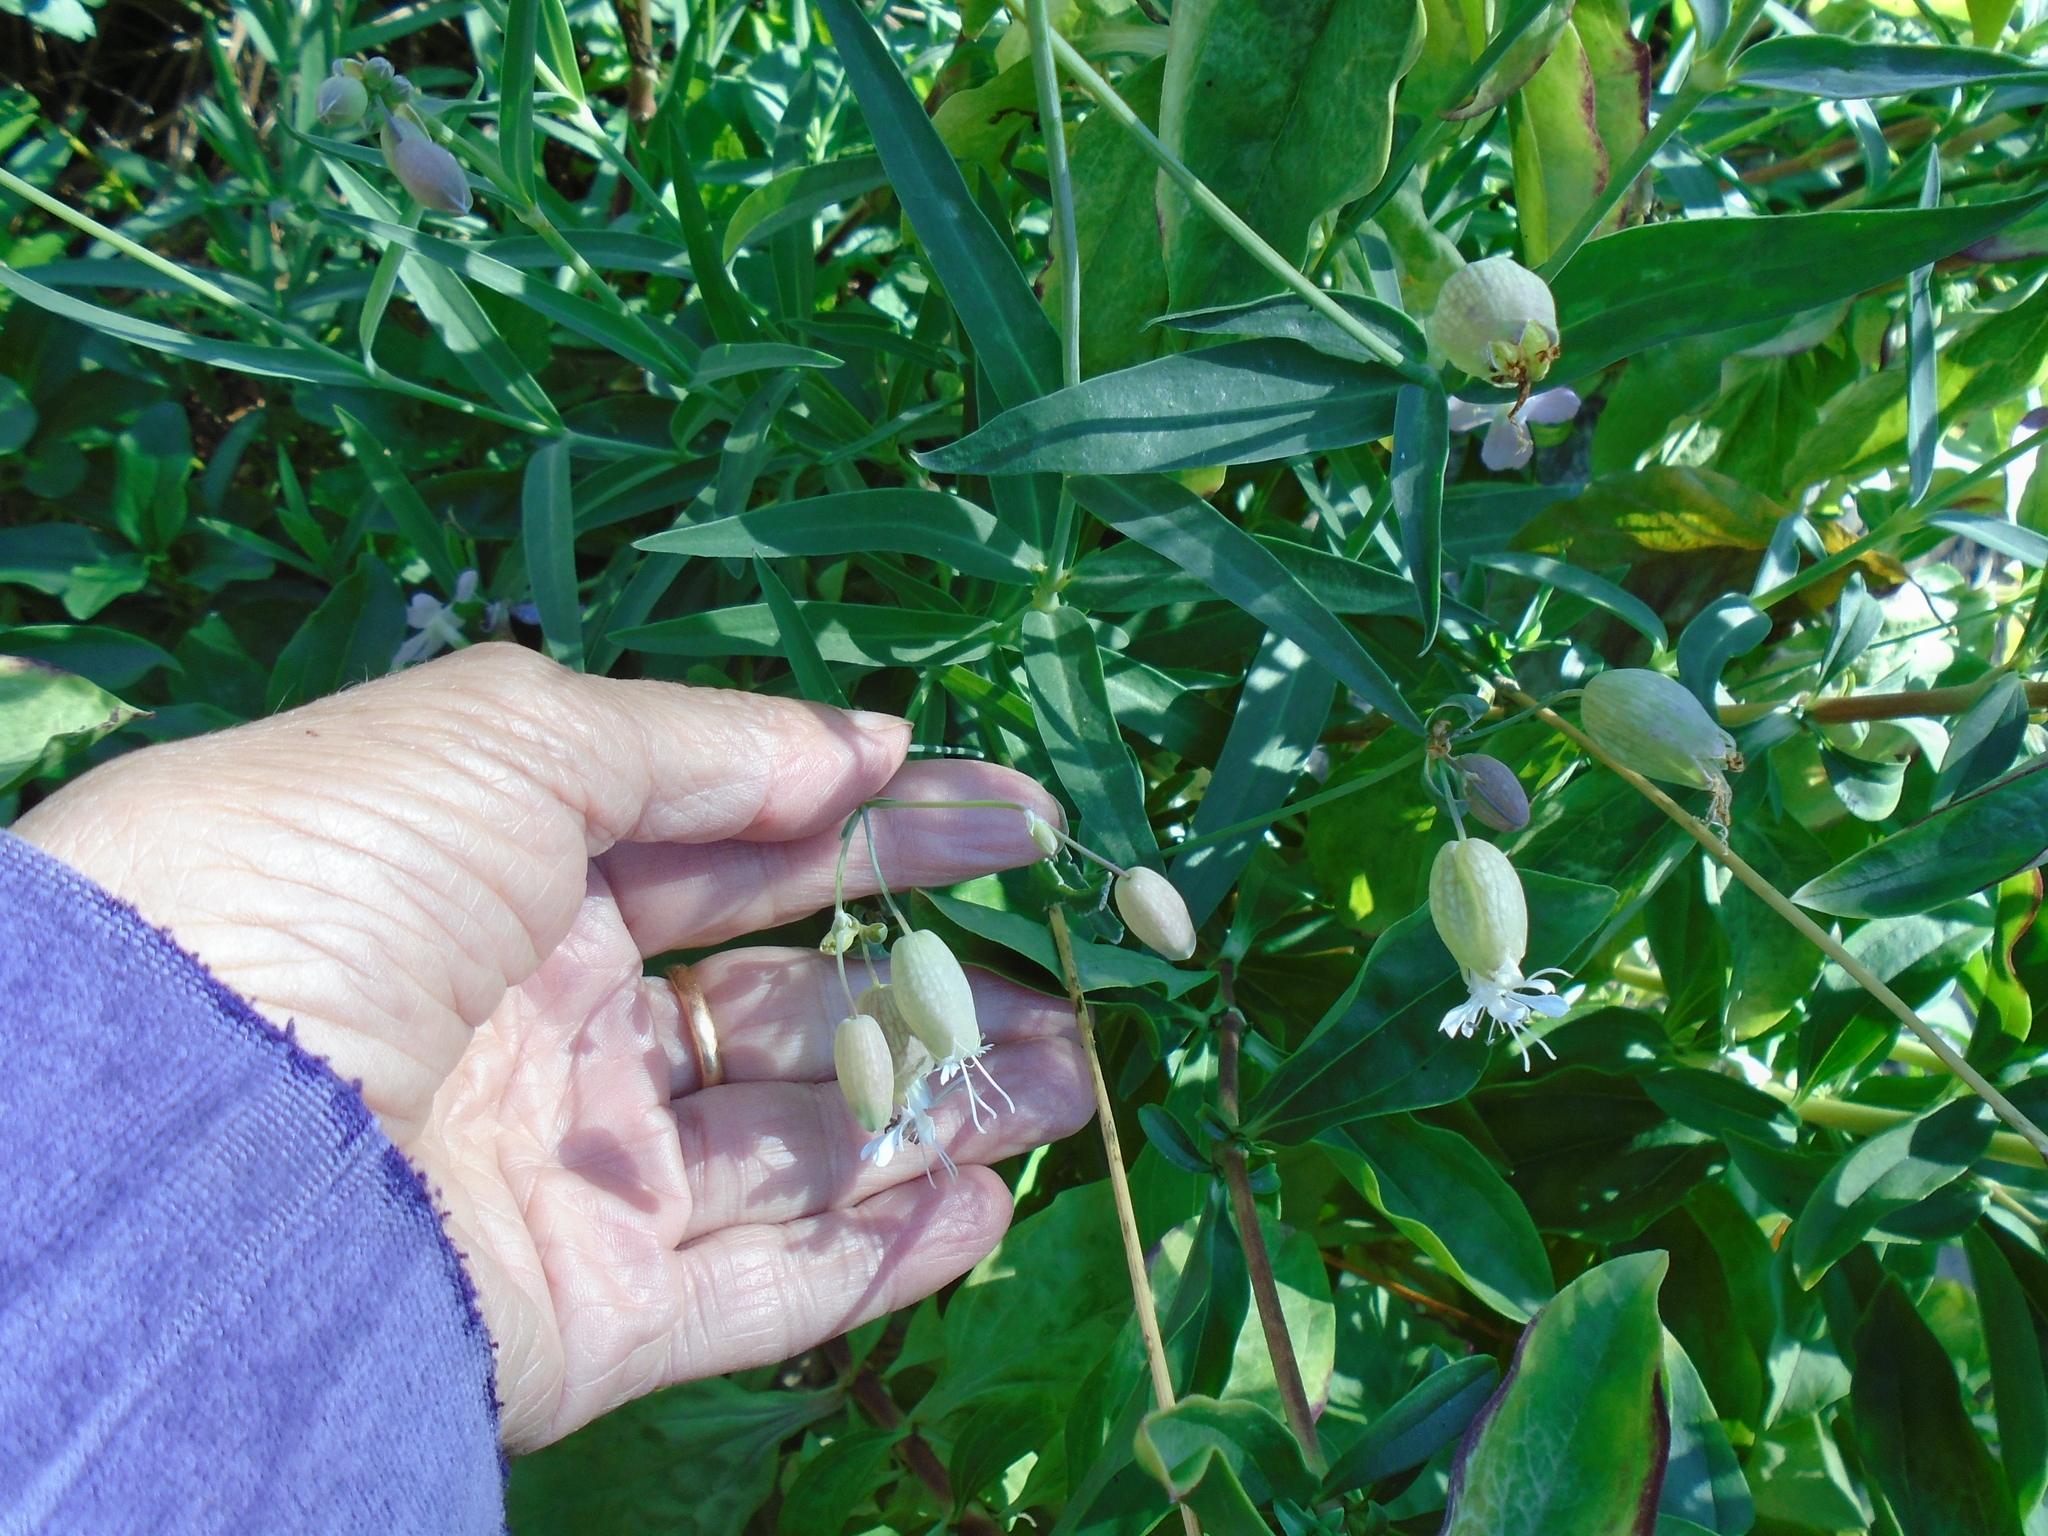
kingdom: Plantae
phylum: Tracheophyta
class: Magnoliopsida
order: Caryophyllales
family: Caryophyllaceae
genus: Silene
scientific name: Silene vulgaris
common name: Bladder campion
